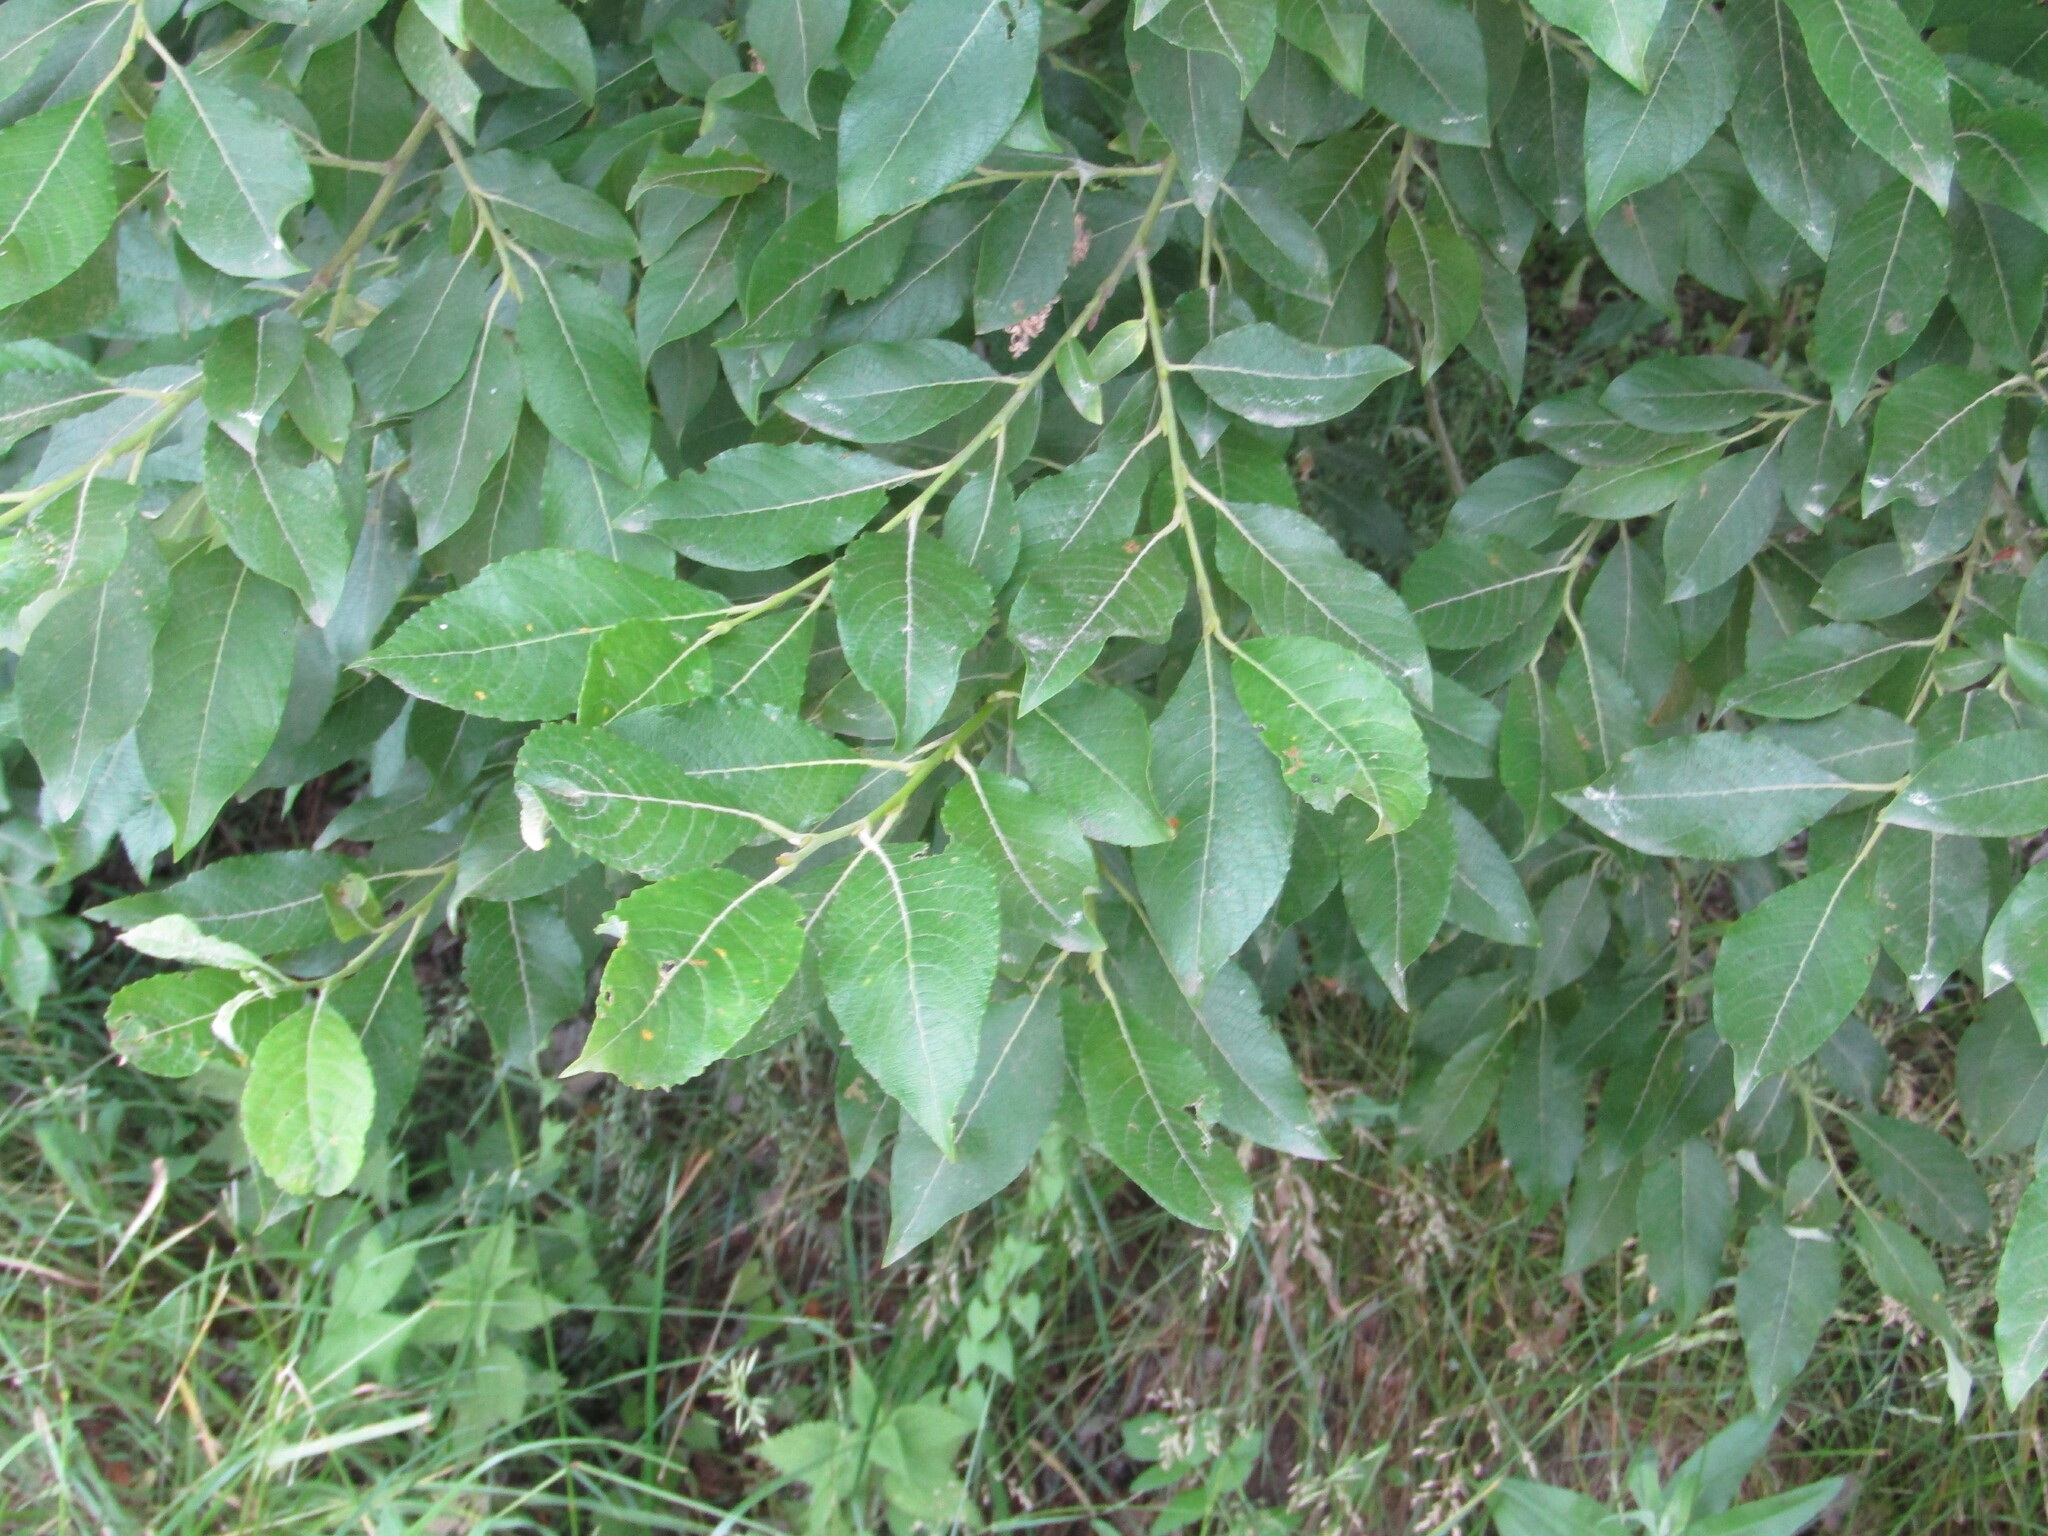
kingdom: Plantae
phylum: Tracheophyta
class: Magnoliopsida
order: Malpighiales
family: Salicaceae
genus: Salix
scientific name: Salix caprea
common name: Goat willow
